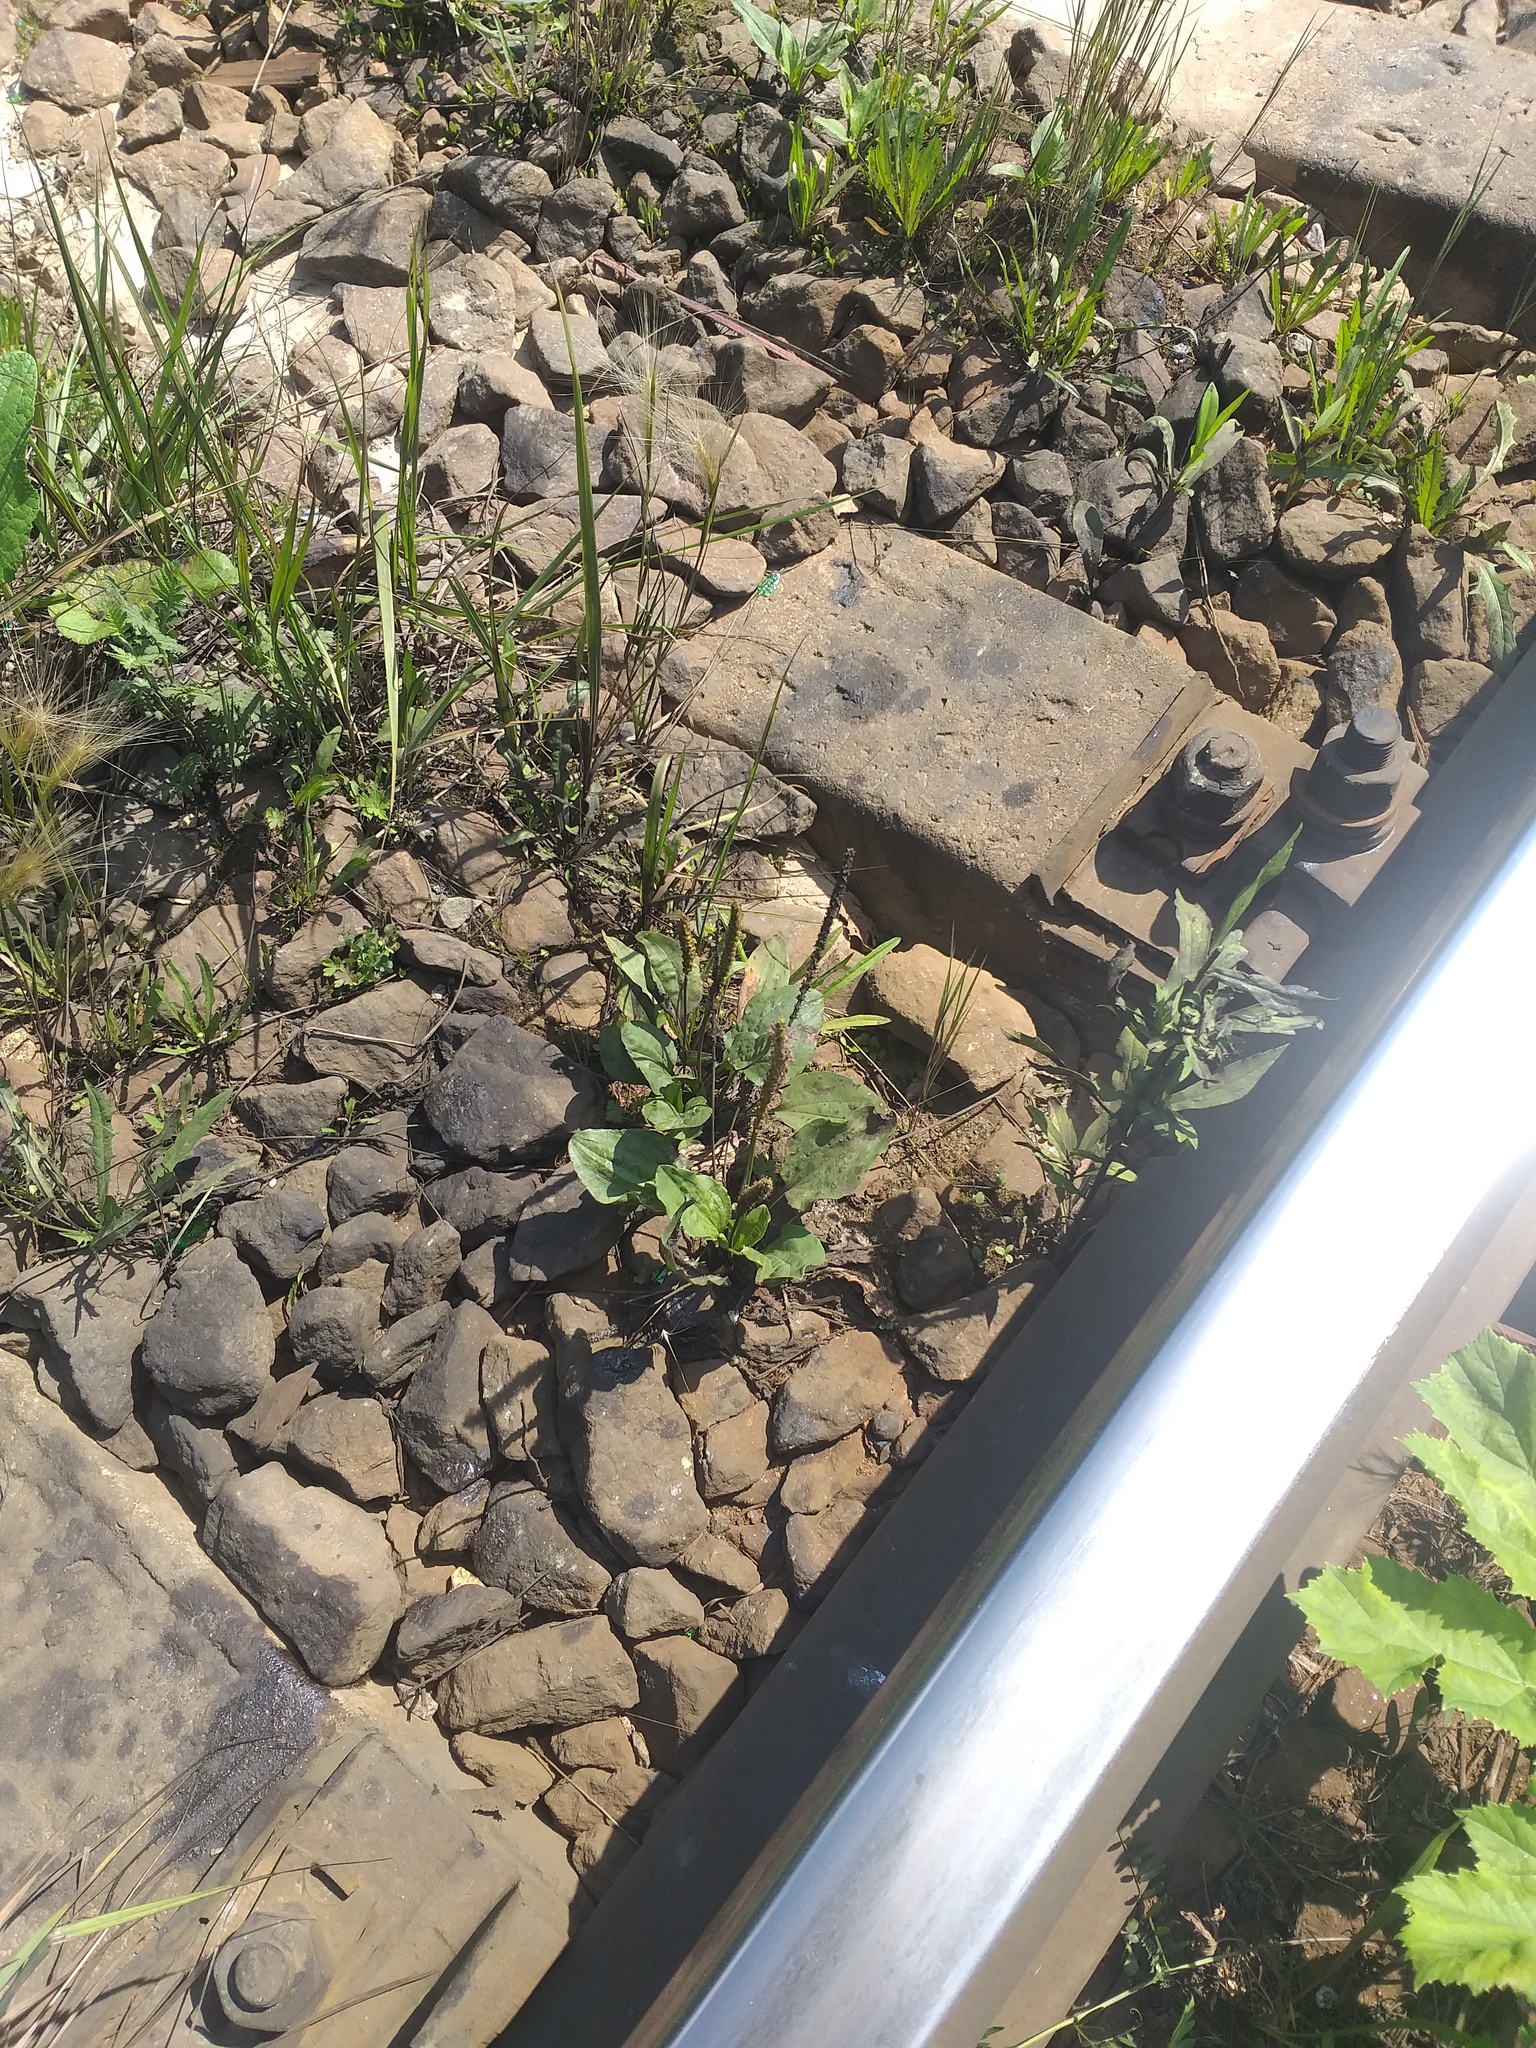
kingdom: Plantae
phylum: Tracheophyta
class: Magnoliopsida
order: Lamiales
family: Plantaginaceae
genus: Plantago
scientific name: Plantago major
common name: Common plantain
